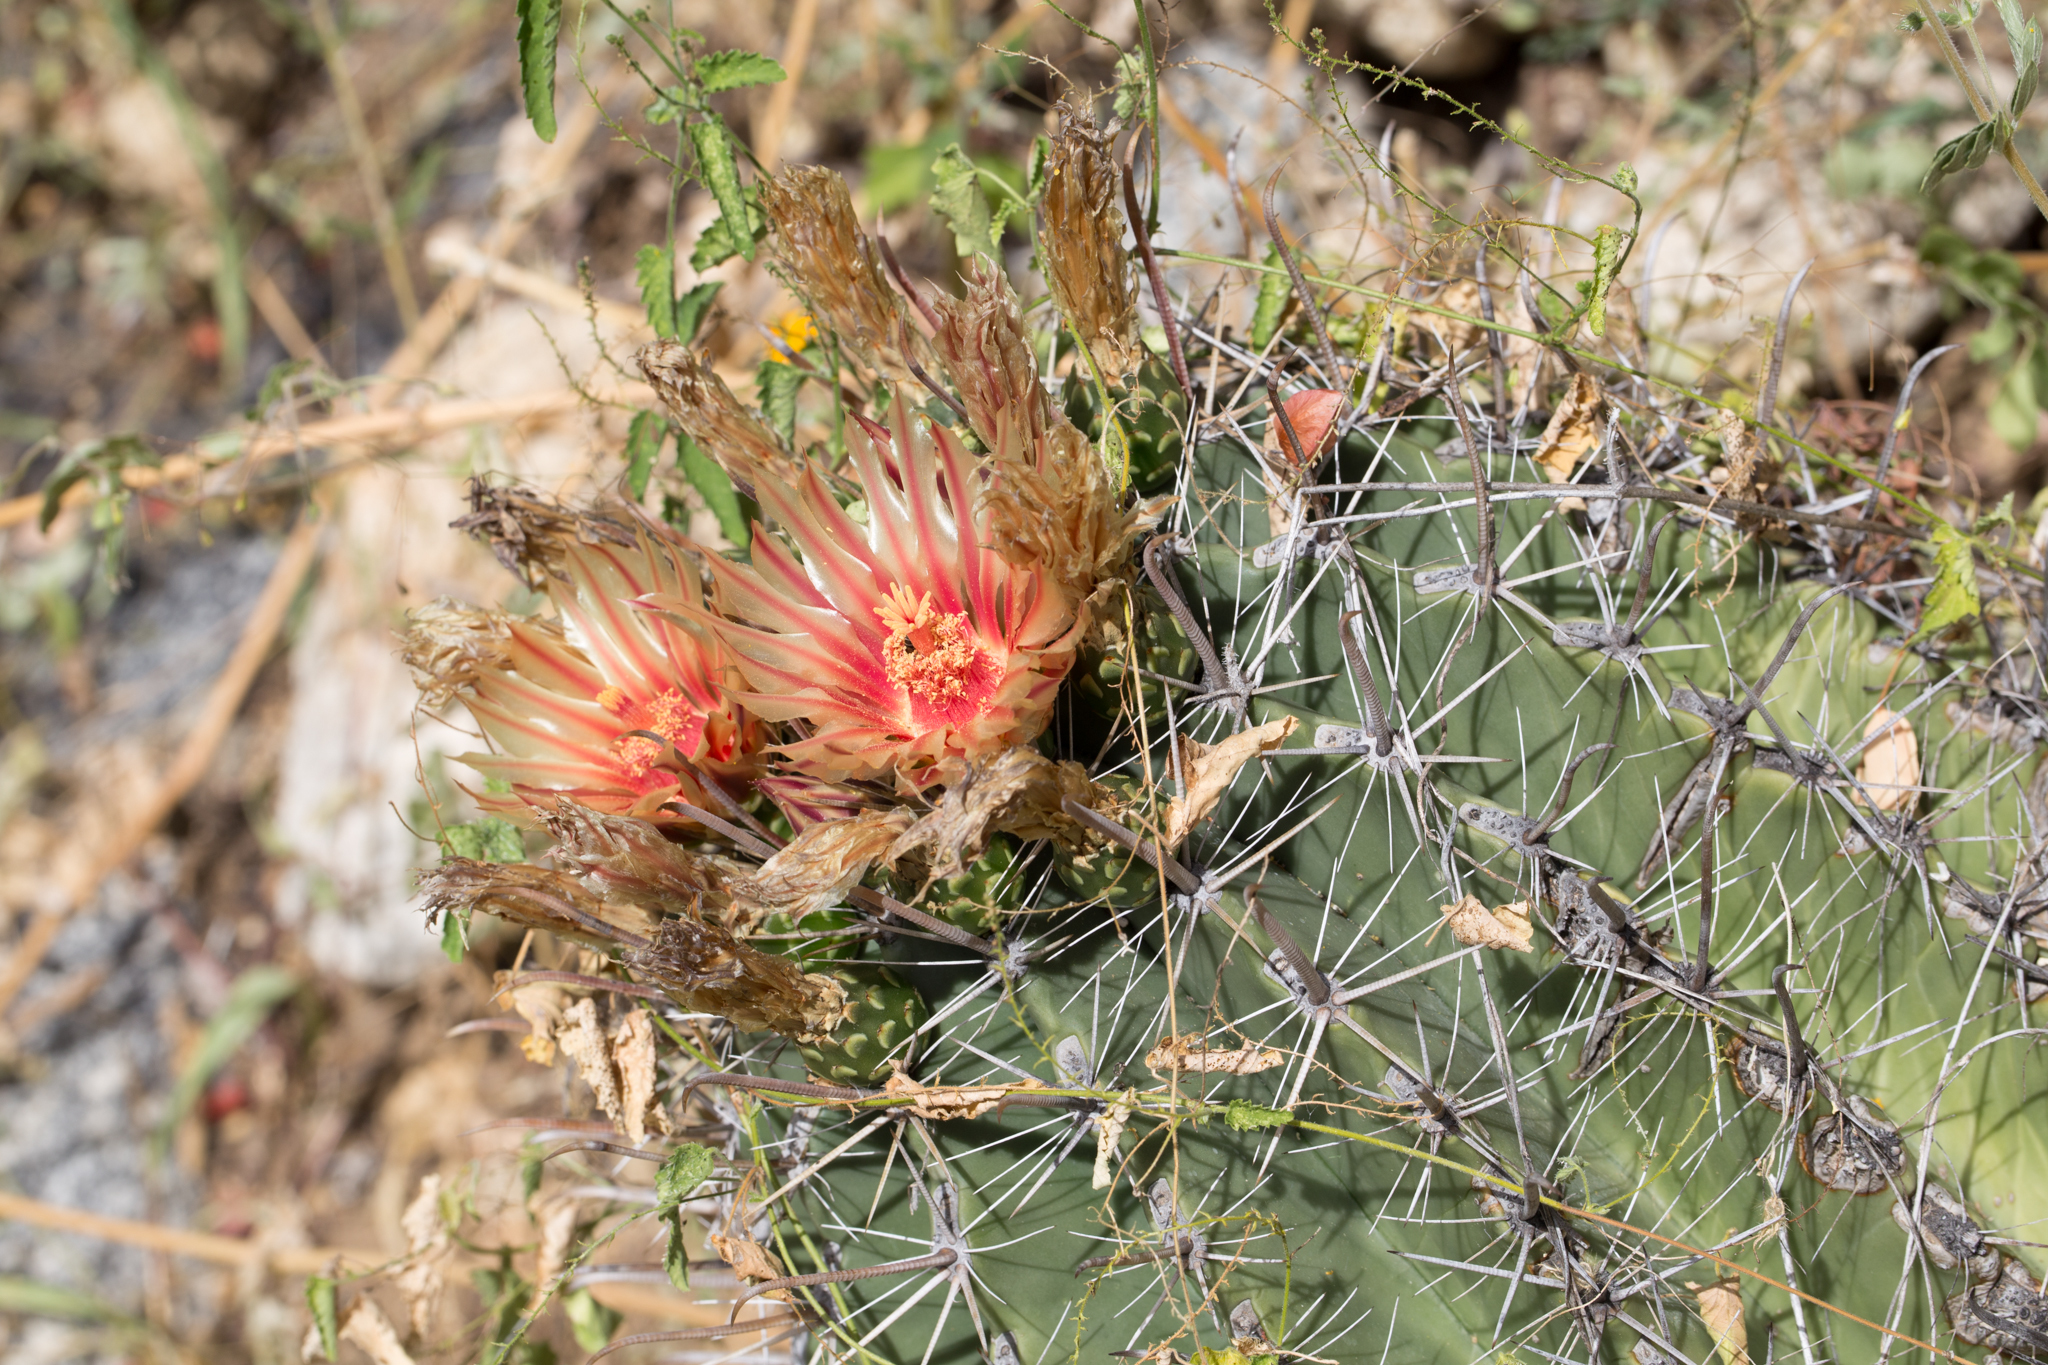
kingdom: Plantae
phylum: Tracheophyta
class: Magnoliopsida
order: Caryophyllales
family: Cactaceae
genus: Ferocactus
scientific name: Ferocactus townsendianus
